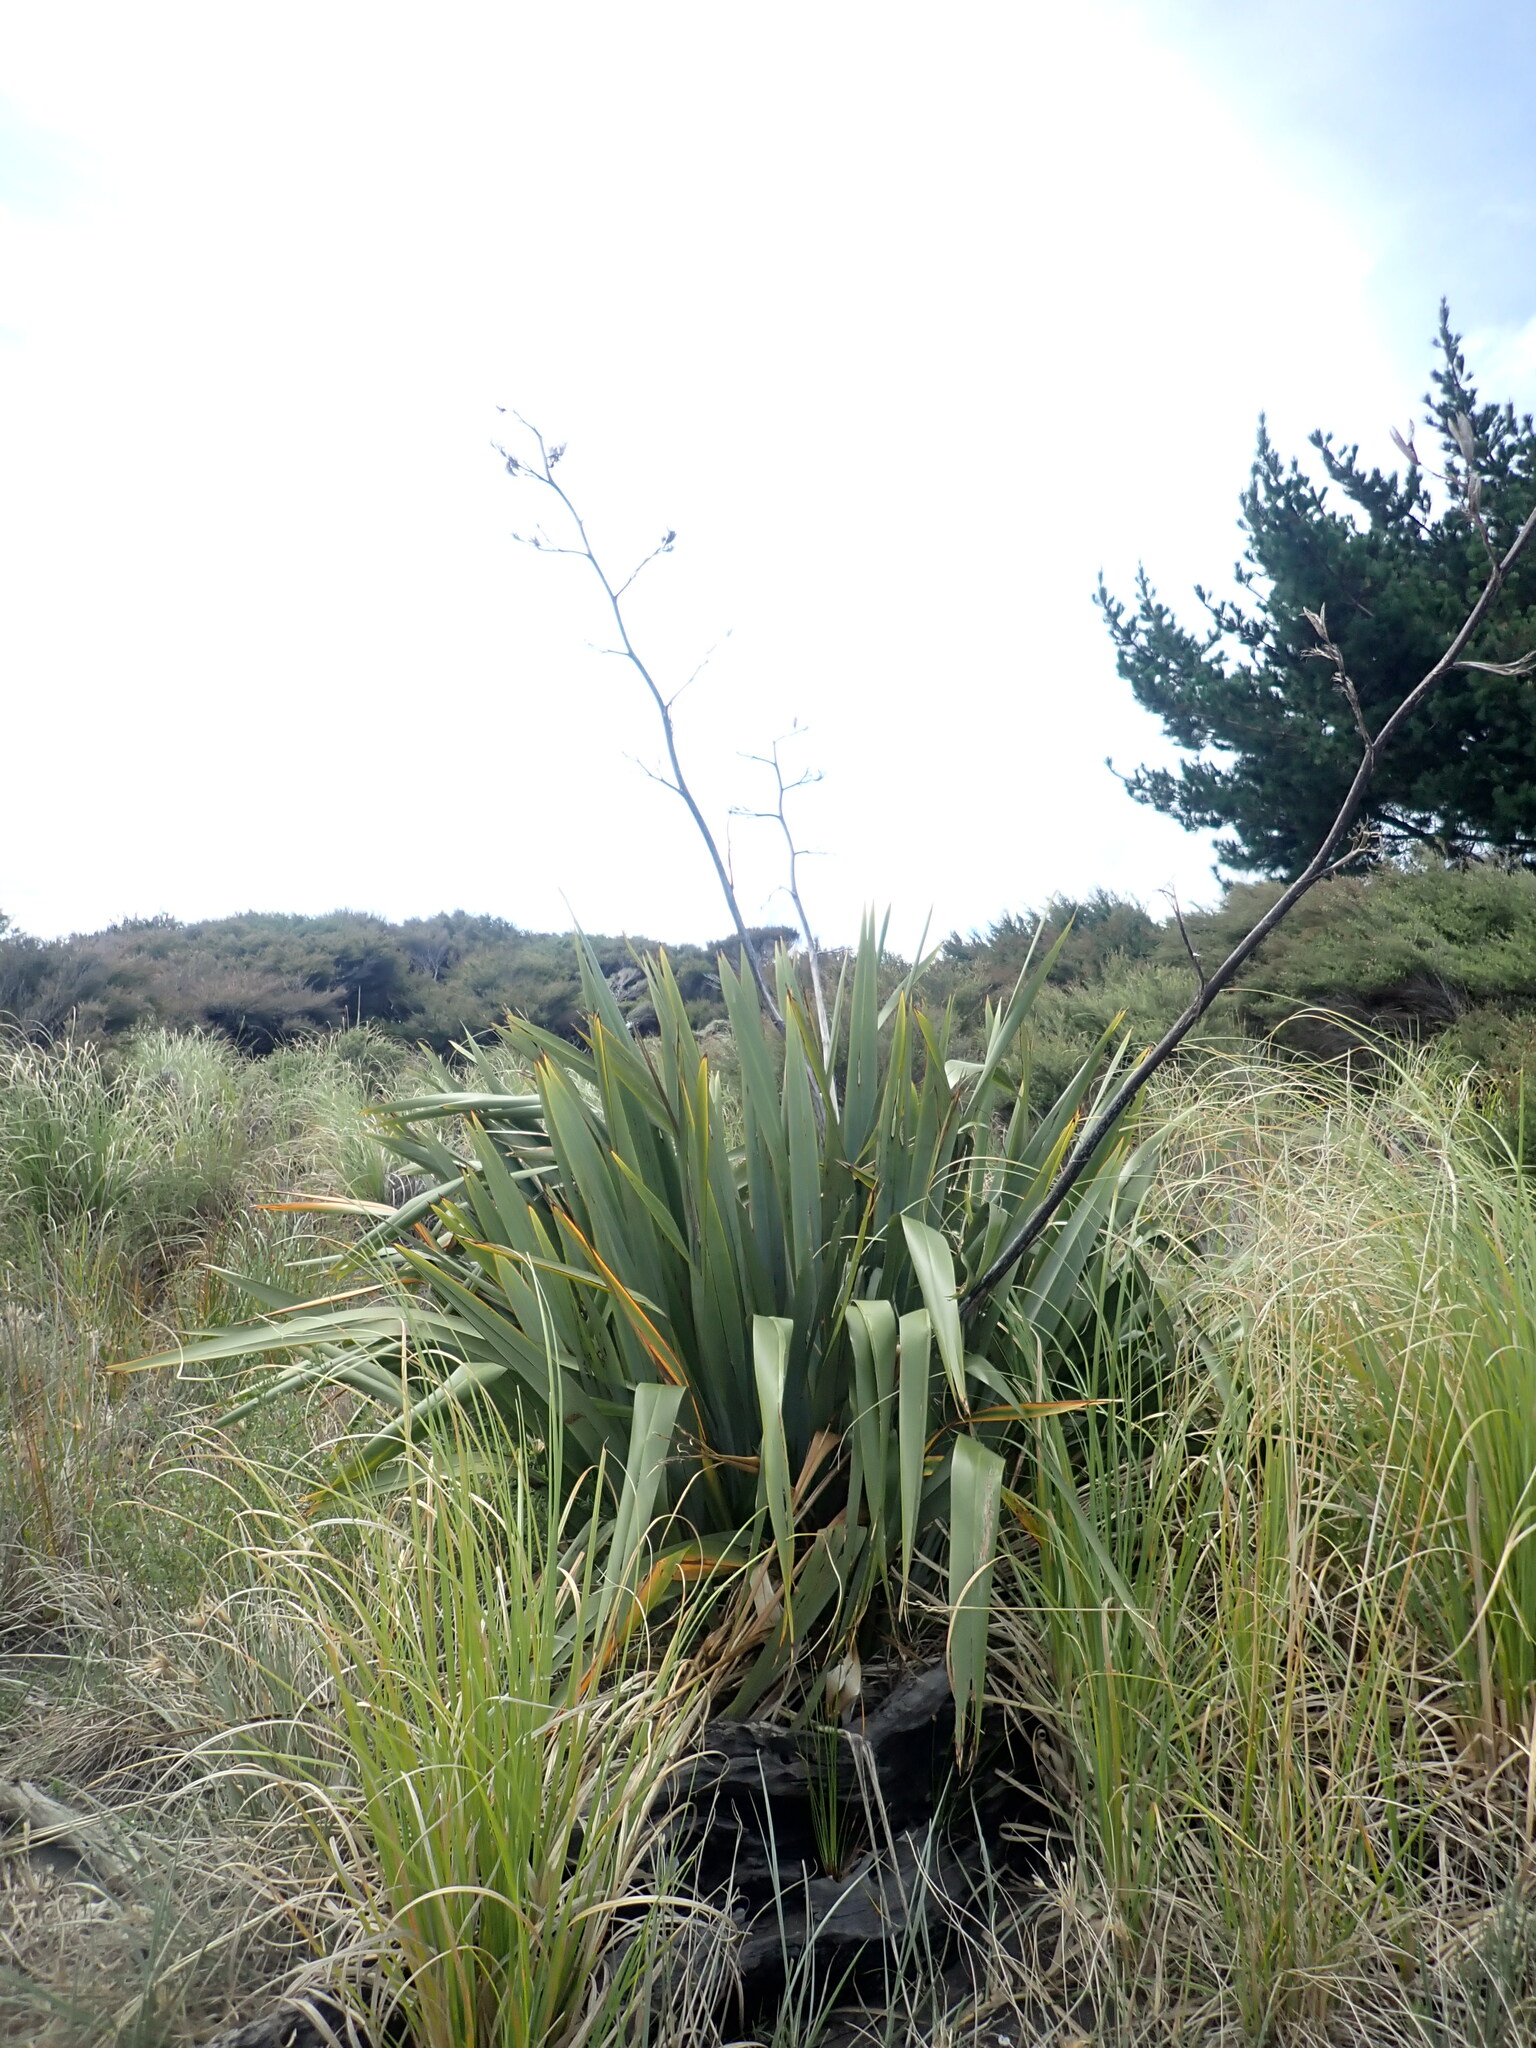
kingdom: Plantae
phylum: Tracheophyta
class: Liliopsida
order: Asparagales
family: Asphodelaceae
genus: Phormium
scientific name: Phormium tenax
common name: New zealand flax
